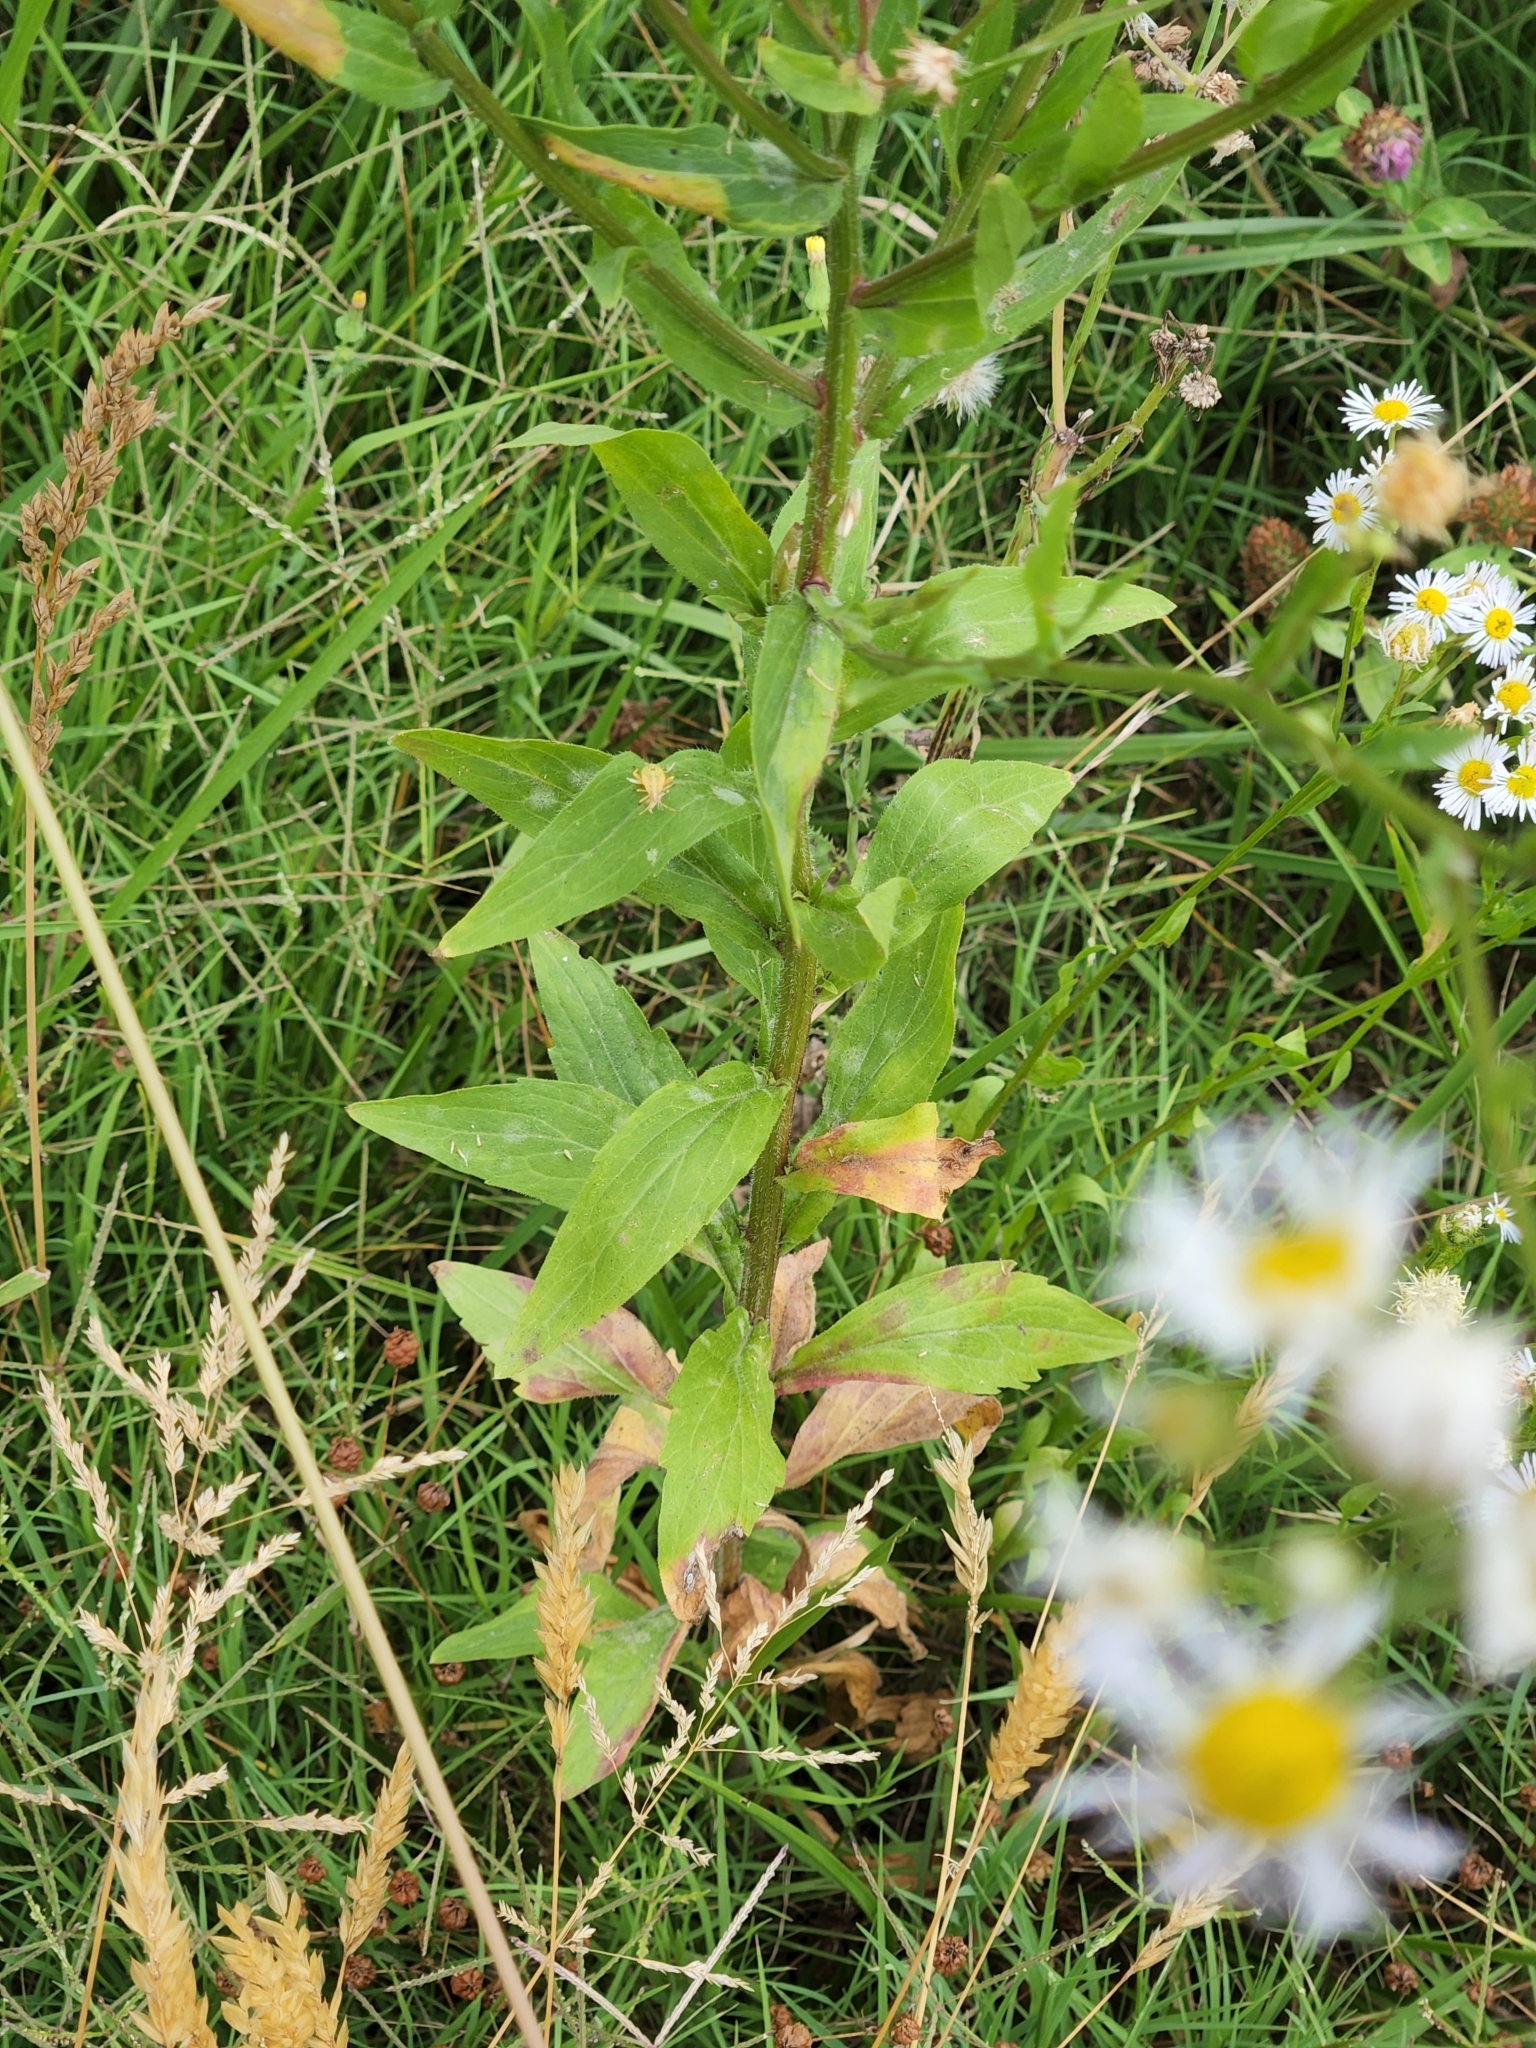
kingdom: Plantae
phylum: Tracheophyta
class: Magnoliopsida
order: Asterales
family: Asteraceae
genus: Erigeron
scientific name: Erigeron annuus
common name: Tall fleabane
